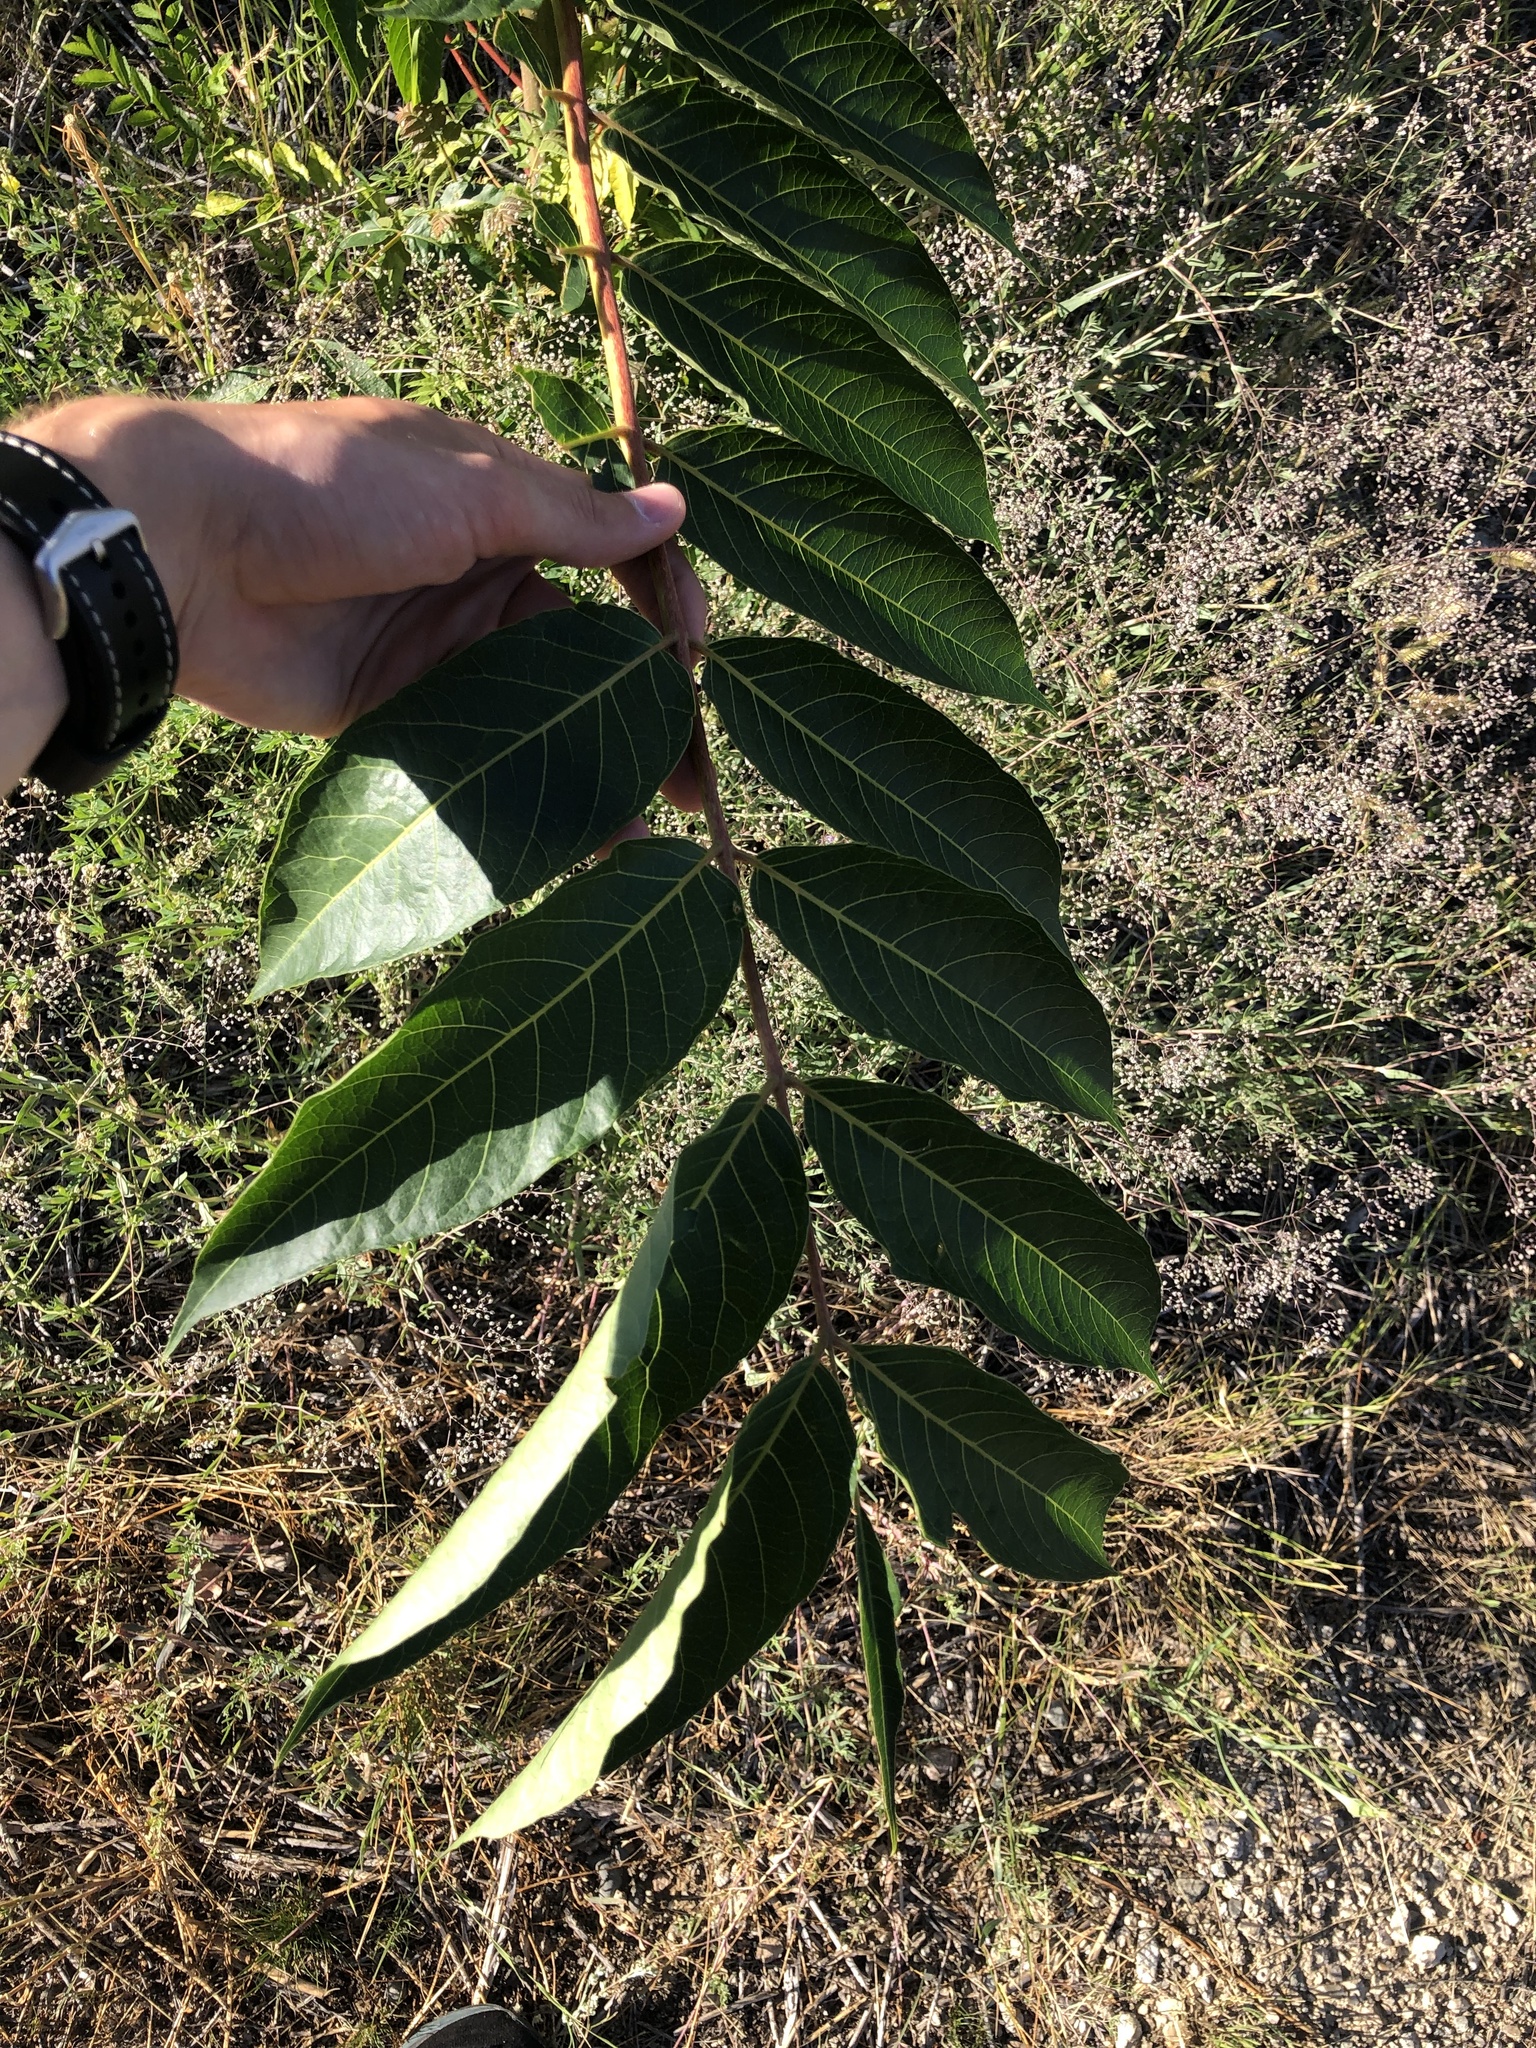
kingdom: Plantae
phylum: Tracheophyta
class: Magnoliopsida
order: Sapindales
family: Simaroubaceae
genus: Ailanthus
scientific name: Ailanthus altissima
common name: Tree-of-heaven
